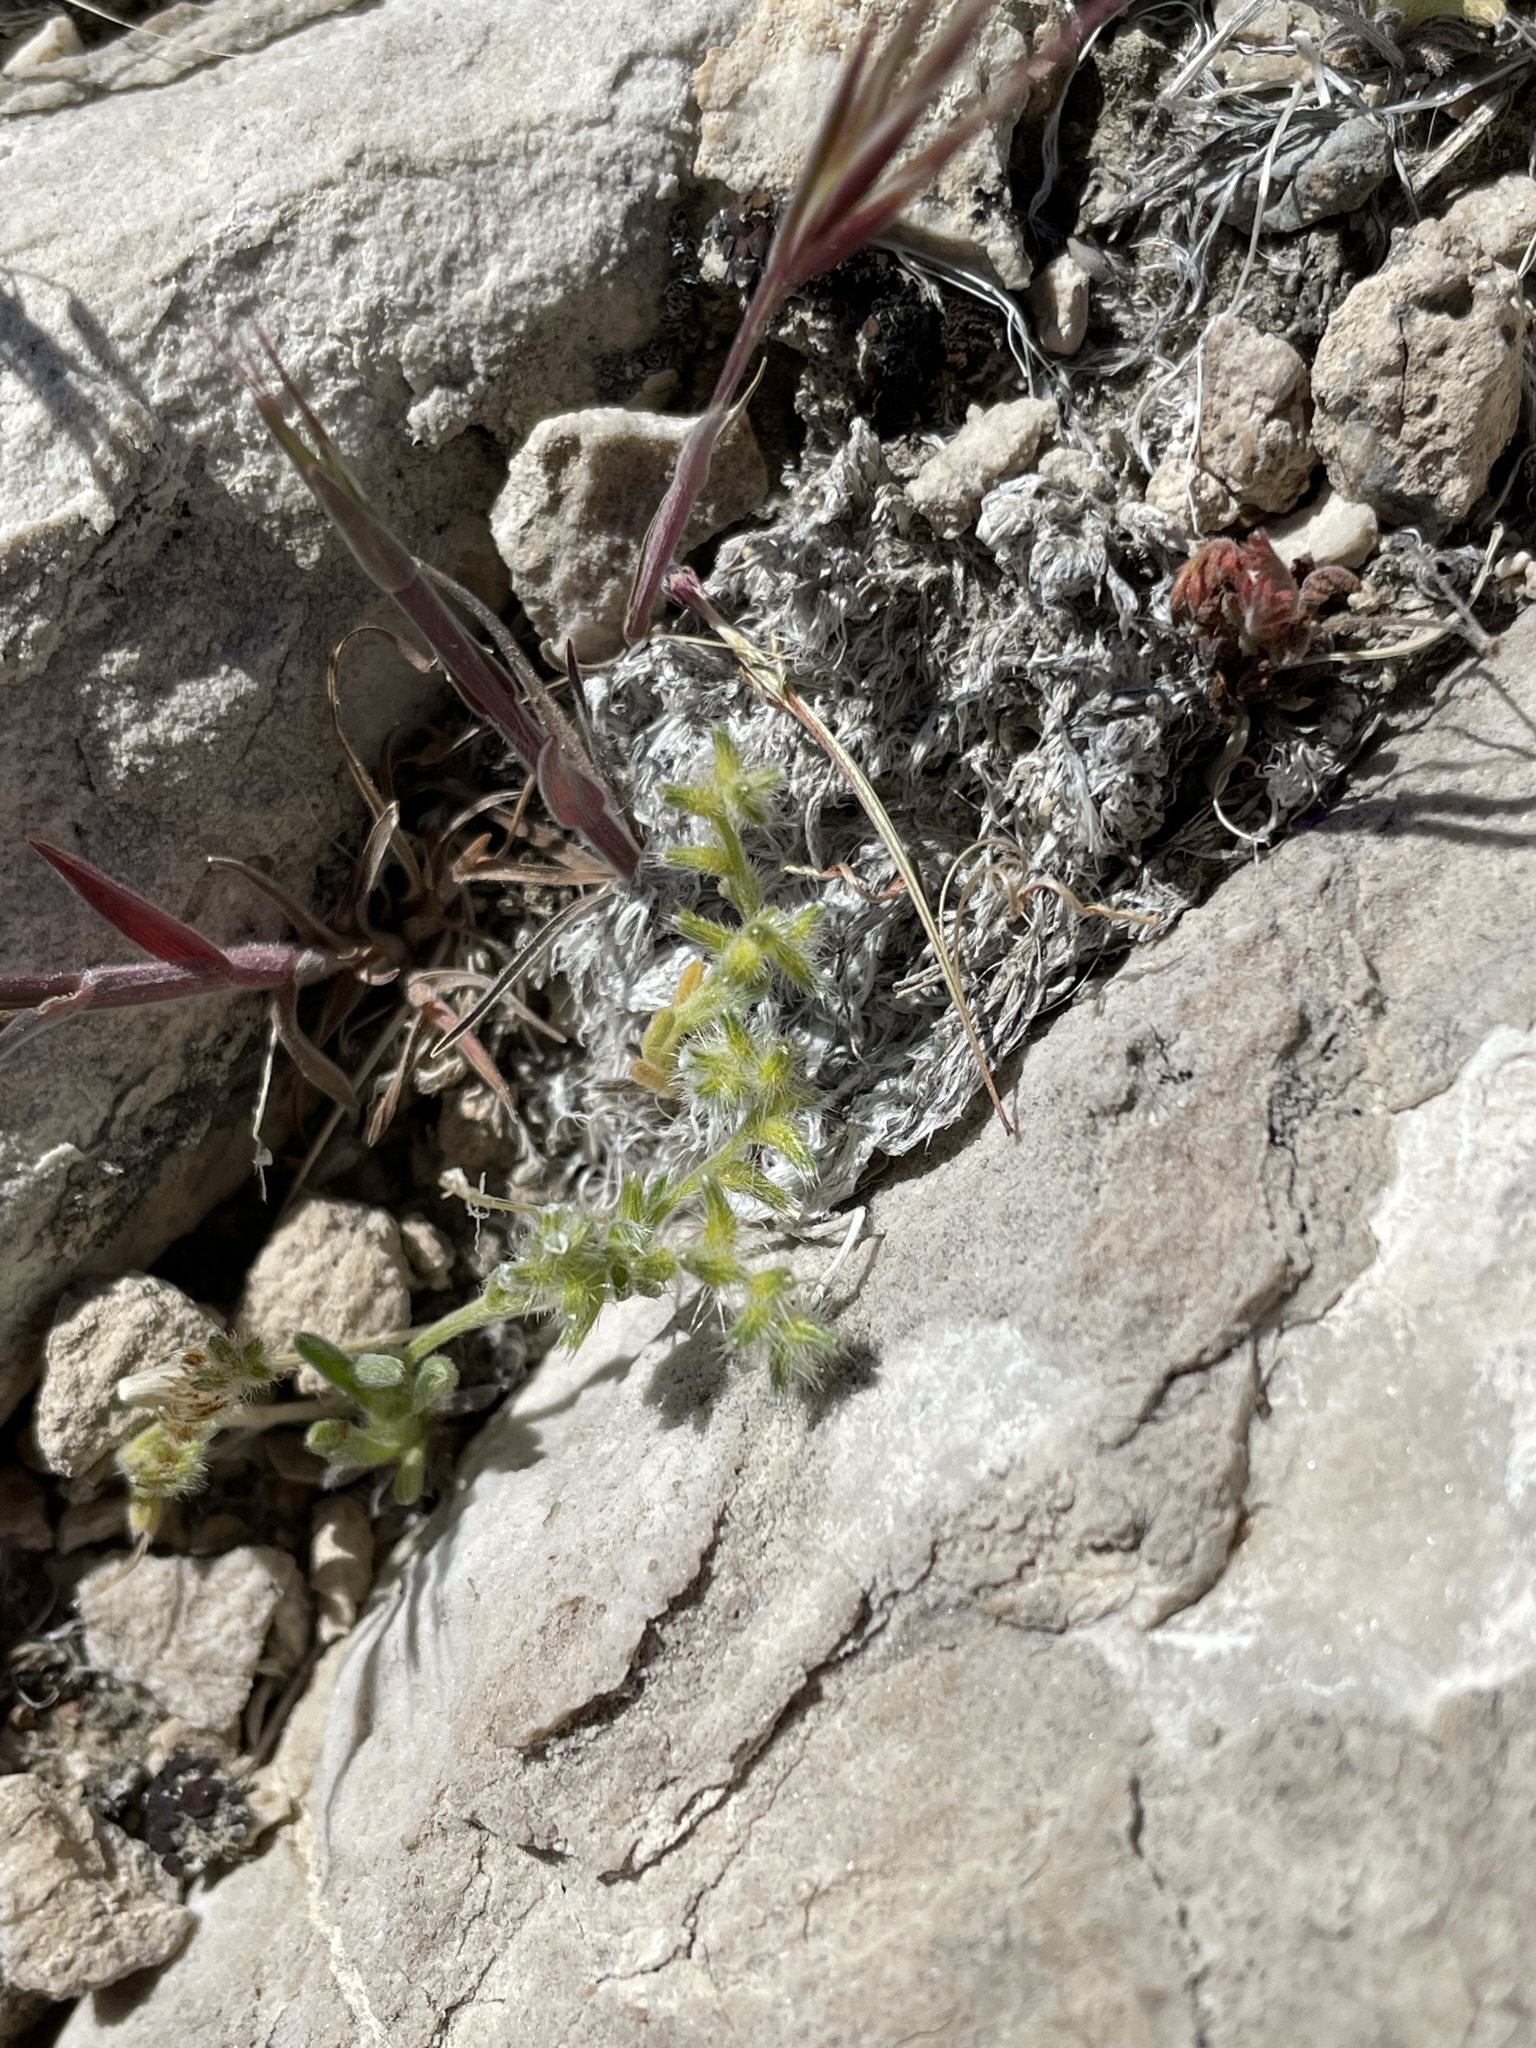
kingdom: Plantae
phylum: Tracheophyta
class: Magnoliopsida
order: Boraginales
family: Boraginaceae
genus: Cryptantha
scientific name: Cryptantha recurvata
